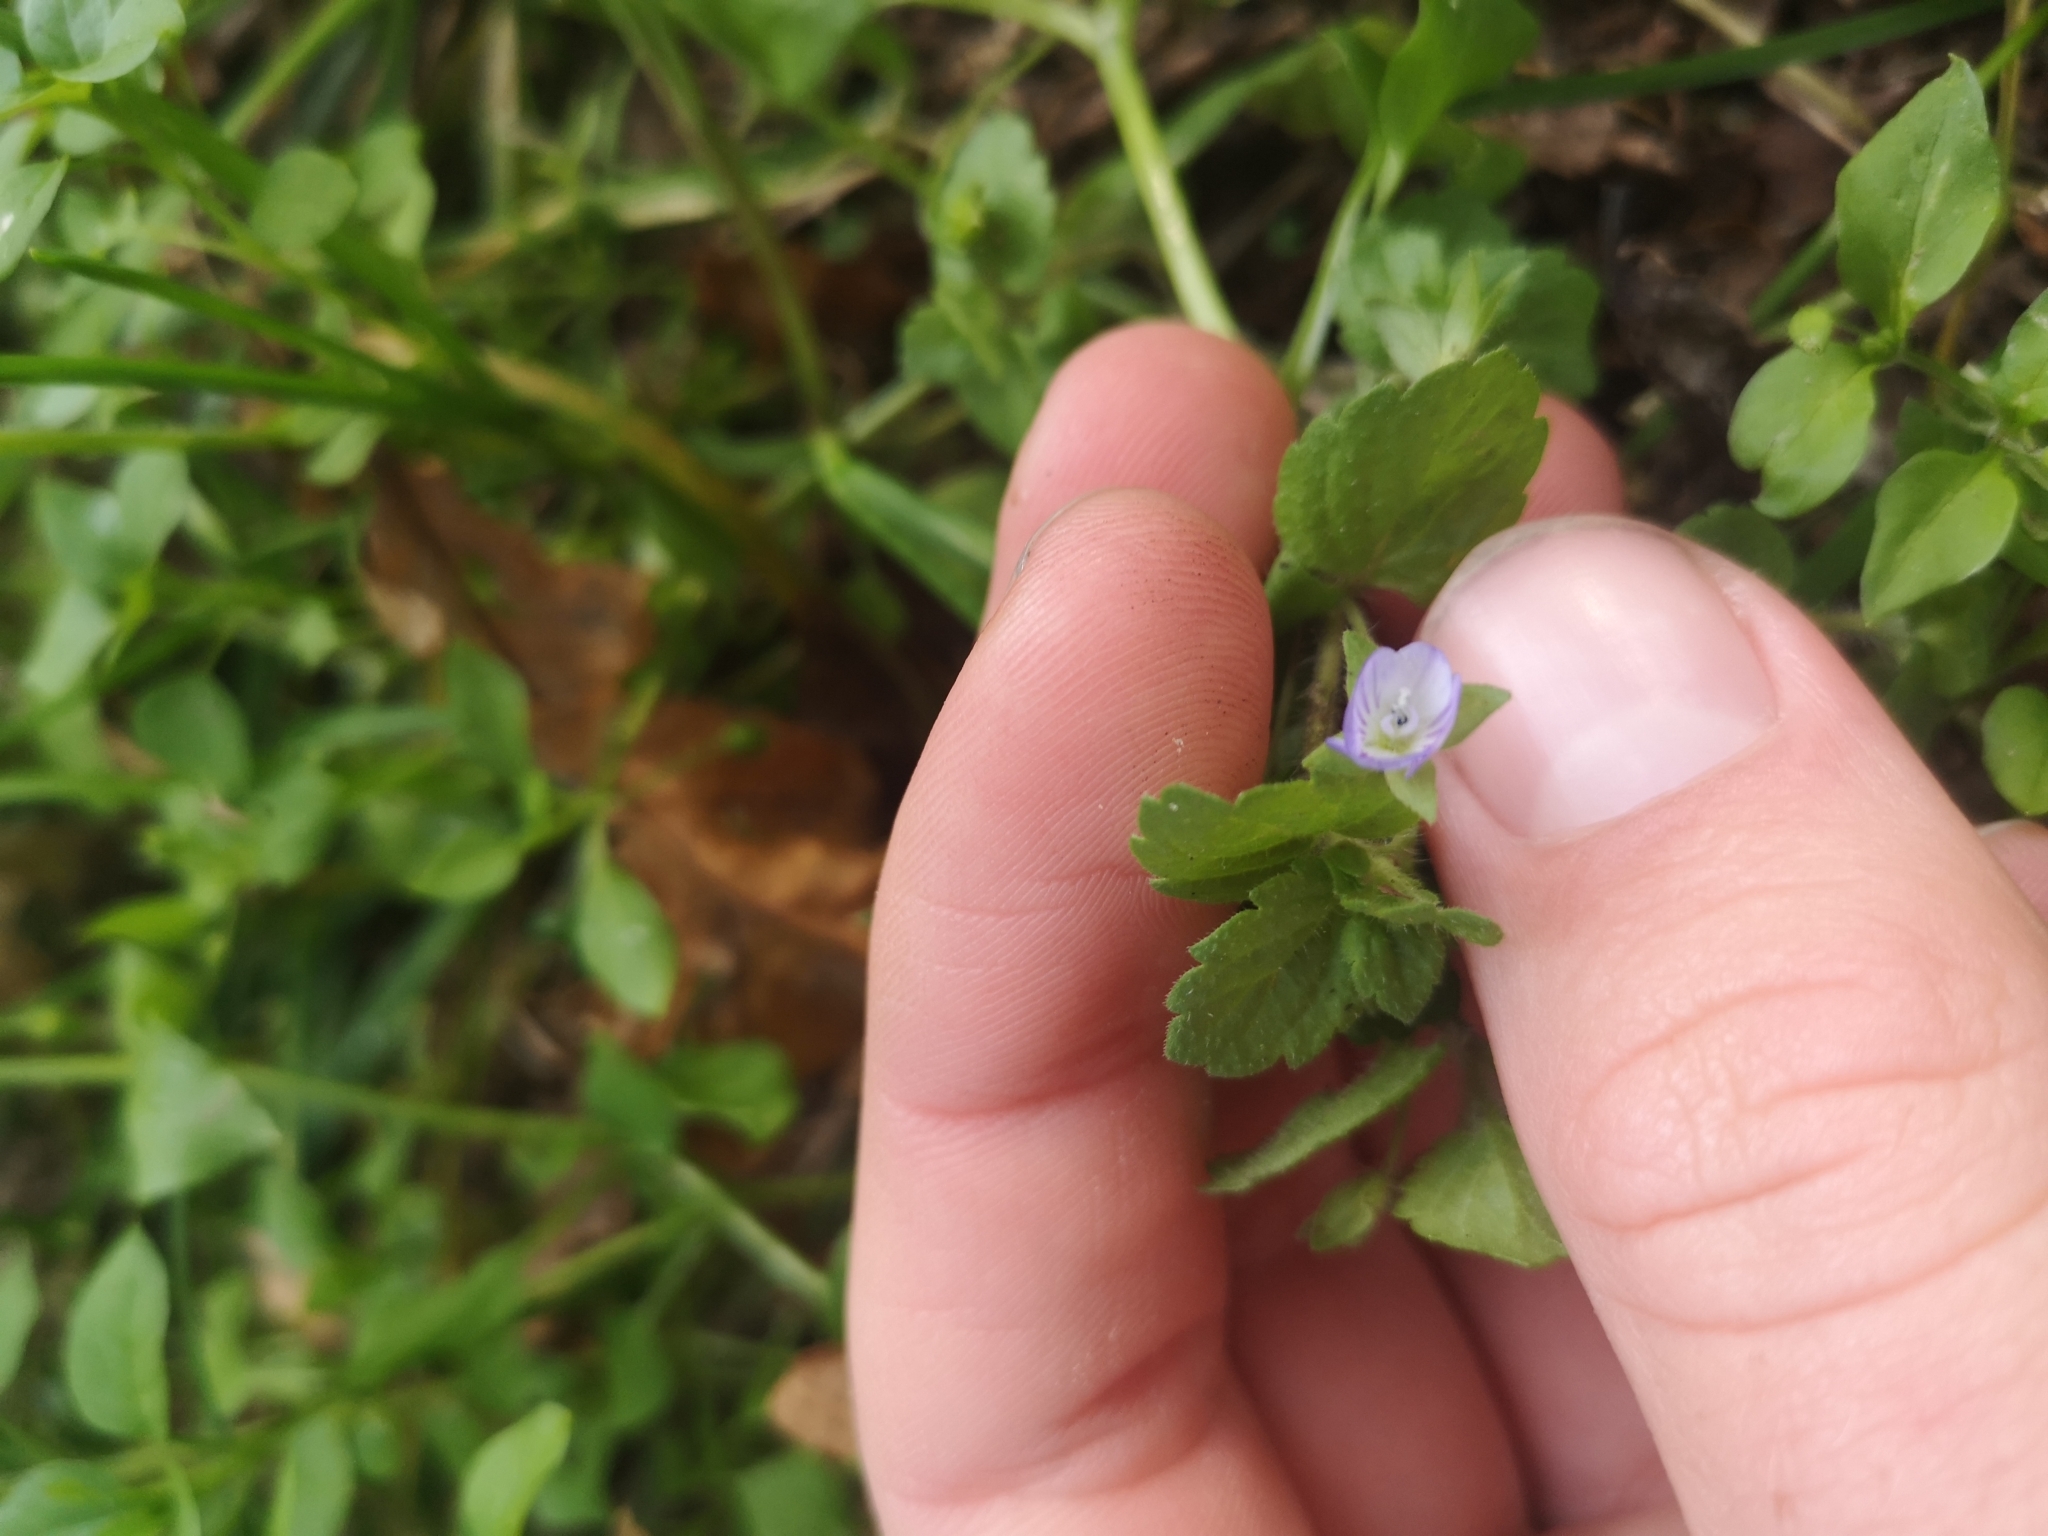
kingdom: Plantae
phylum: Tracheophyta
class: Magnoliopsida
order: Lamiales
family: Plantaginaceae
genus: Veronica
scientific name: Veronica persica
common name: Common field-speedwell
